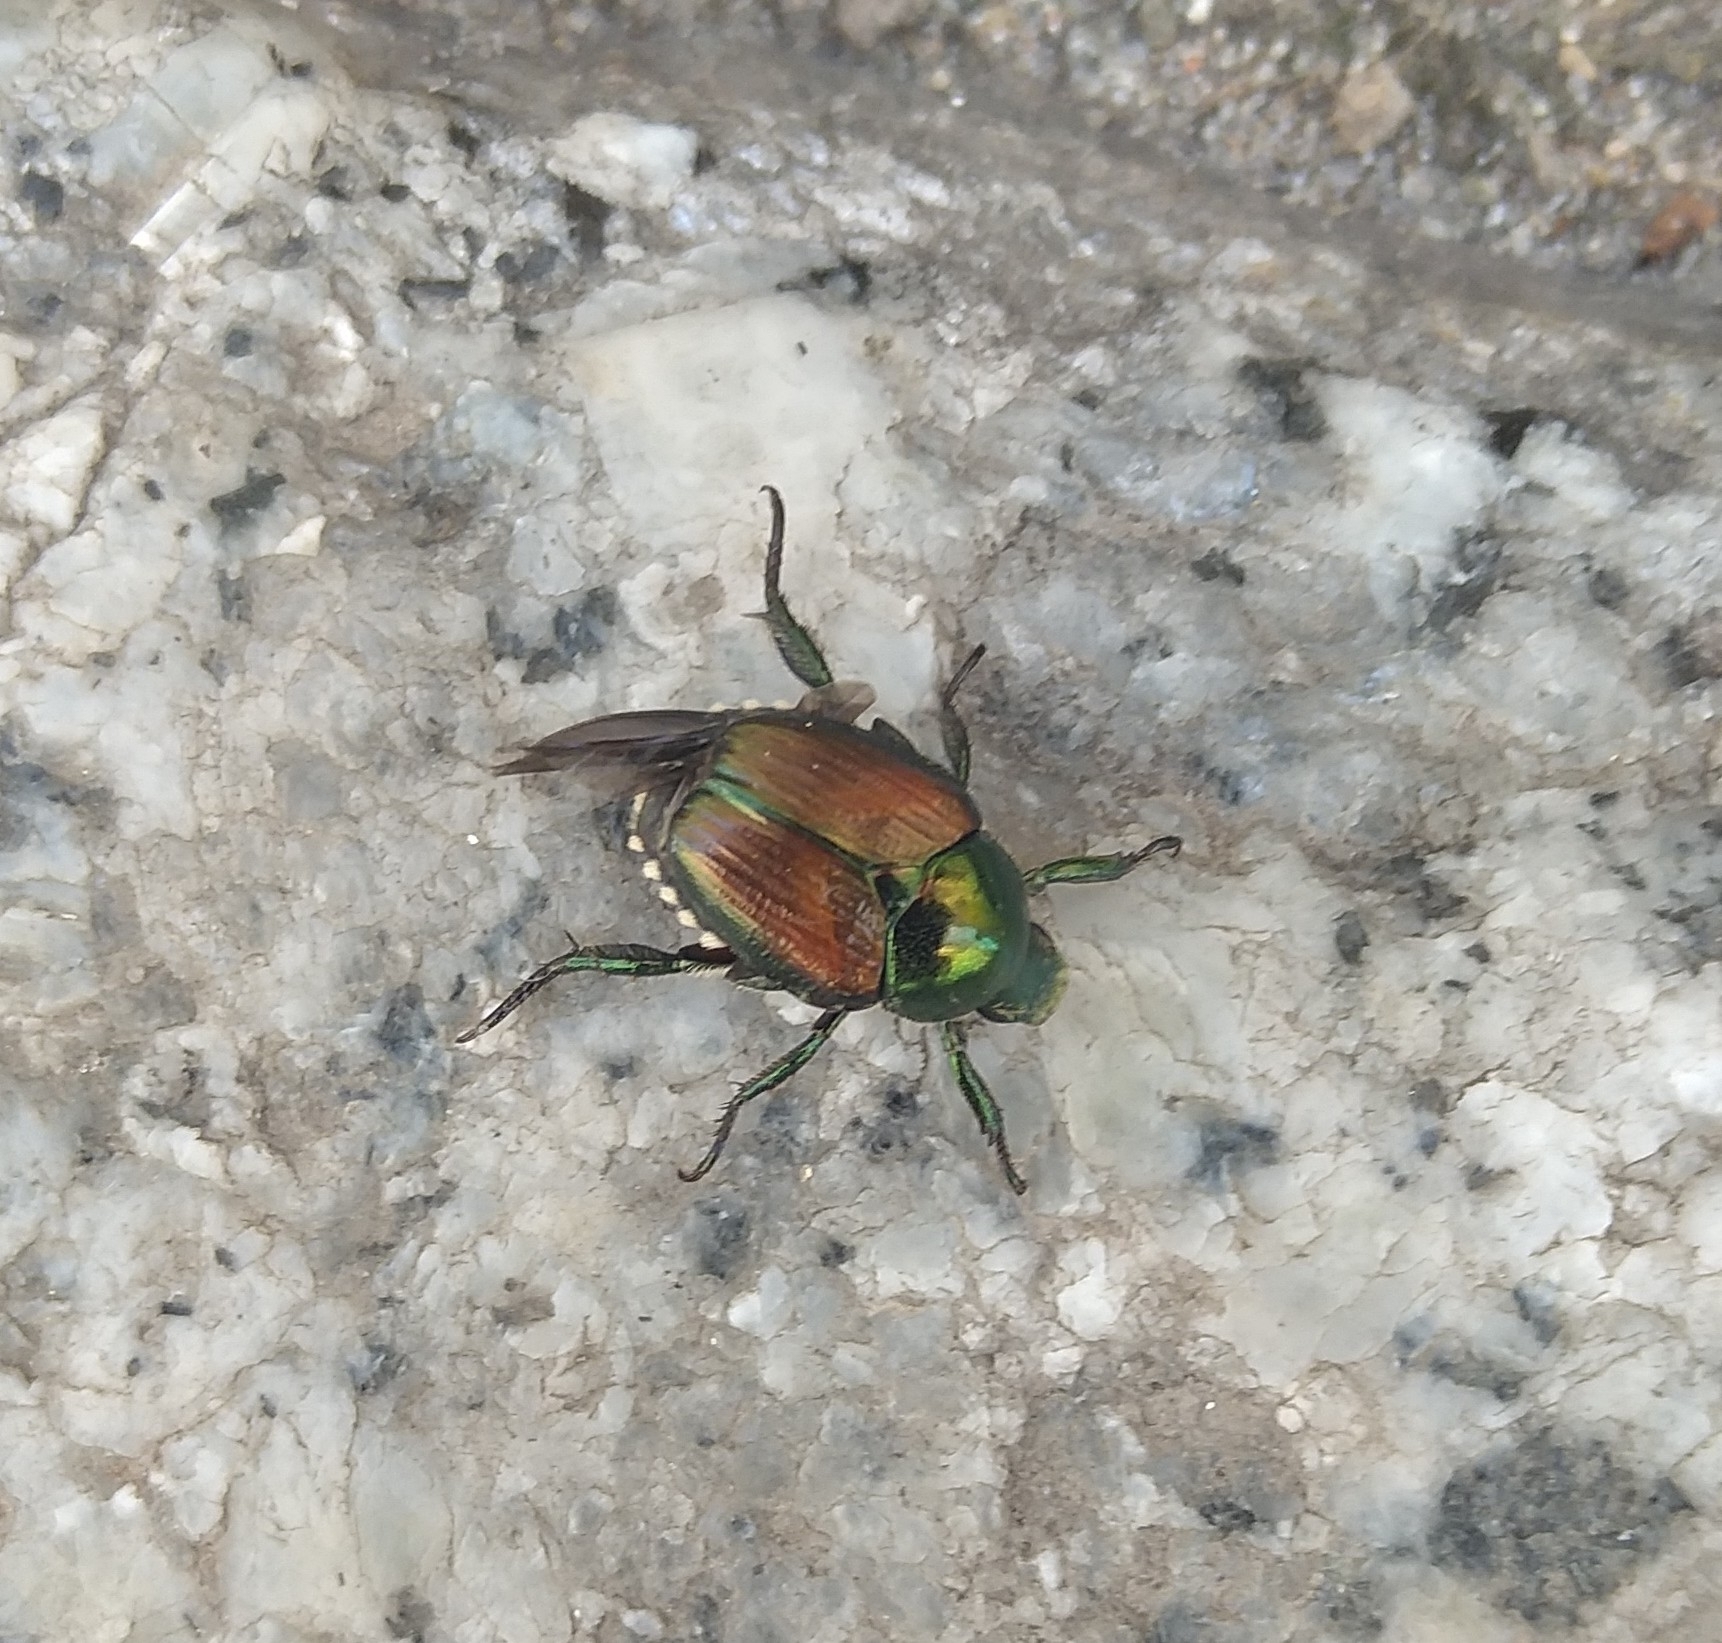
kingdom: Animalia
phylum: Arthropoda
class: Insecta
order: Coleoptera
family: Scarabaeidae
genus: Popillia
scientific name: Popillia japonica
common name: Japanese beetle
